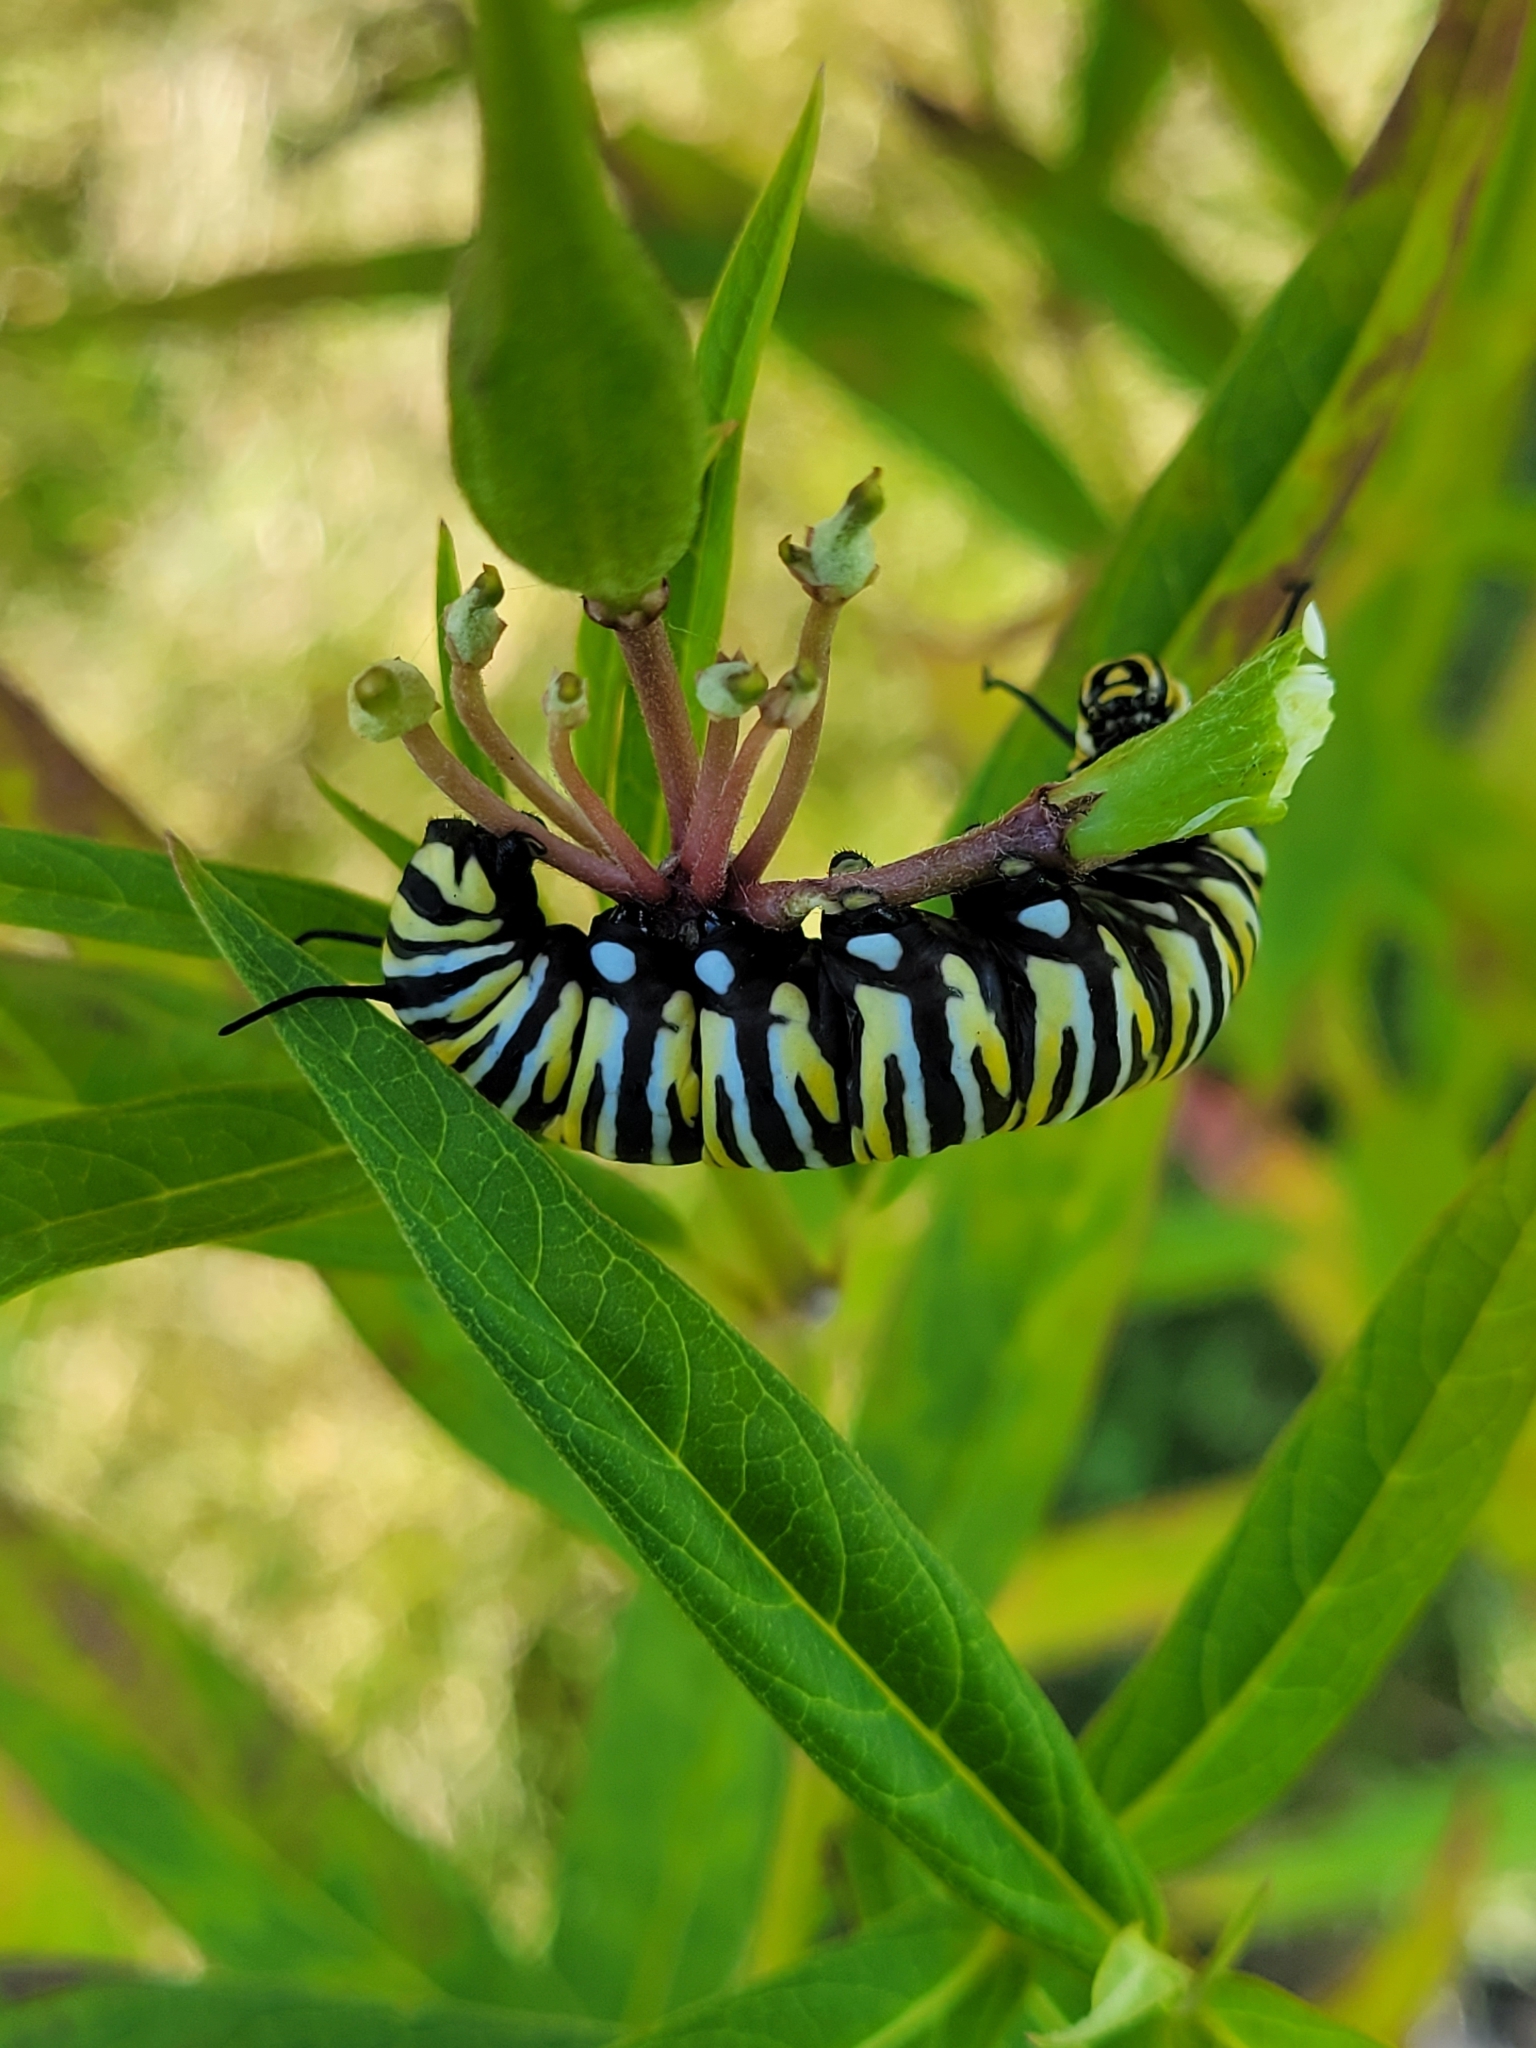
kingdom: Animalia
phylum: Arthropoda
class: Insecta
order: Lepidoptera
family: Nymphalidae
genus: Danaus
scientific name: Danaus plexippus
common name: Monarch
